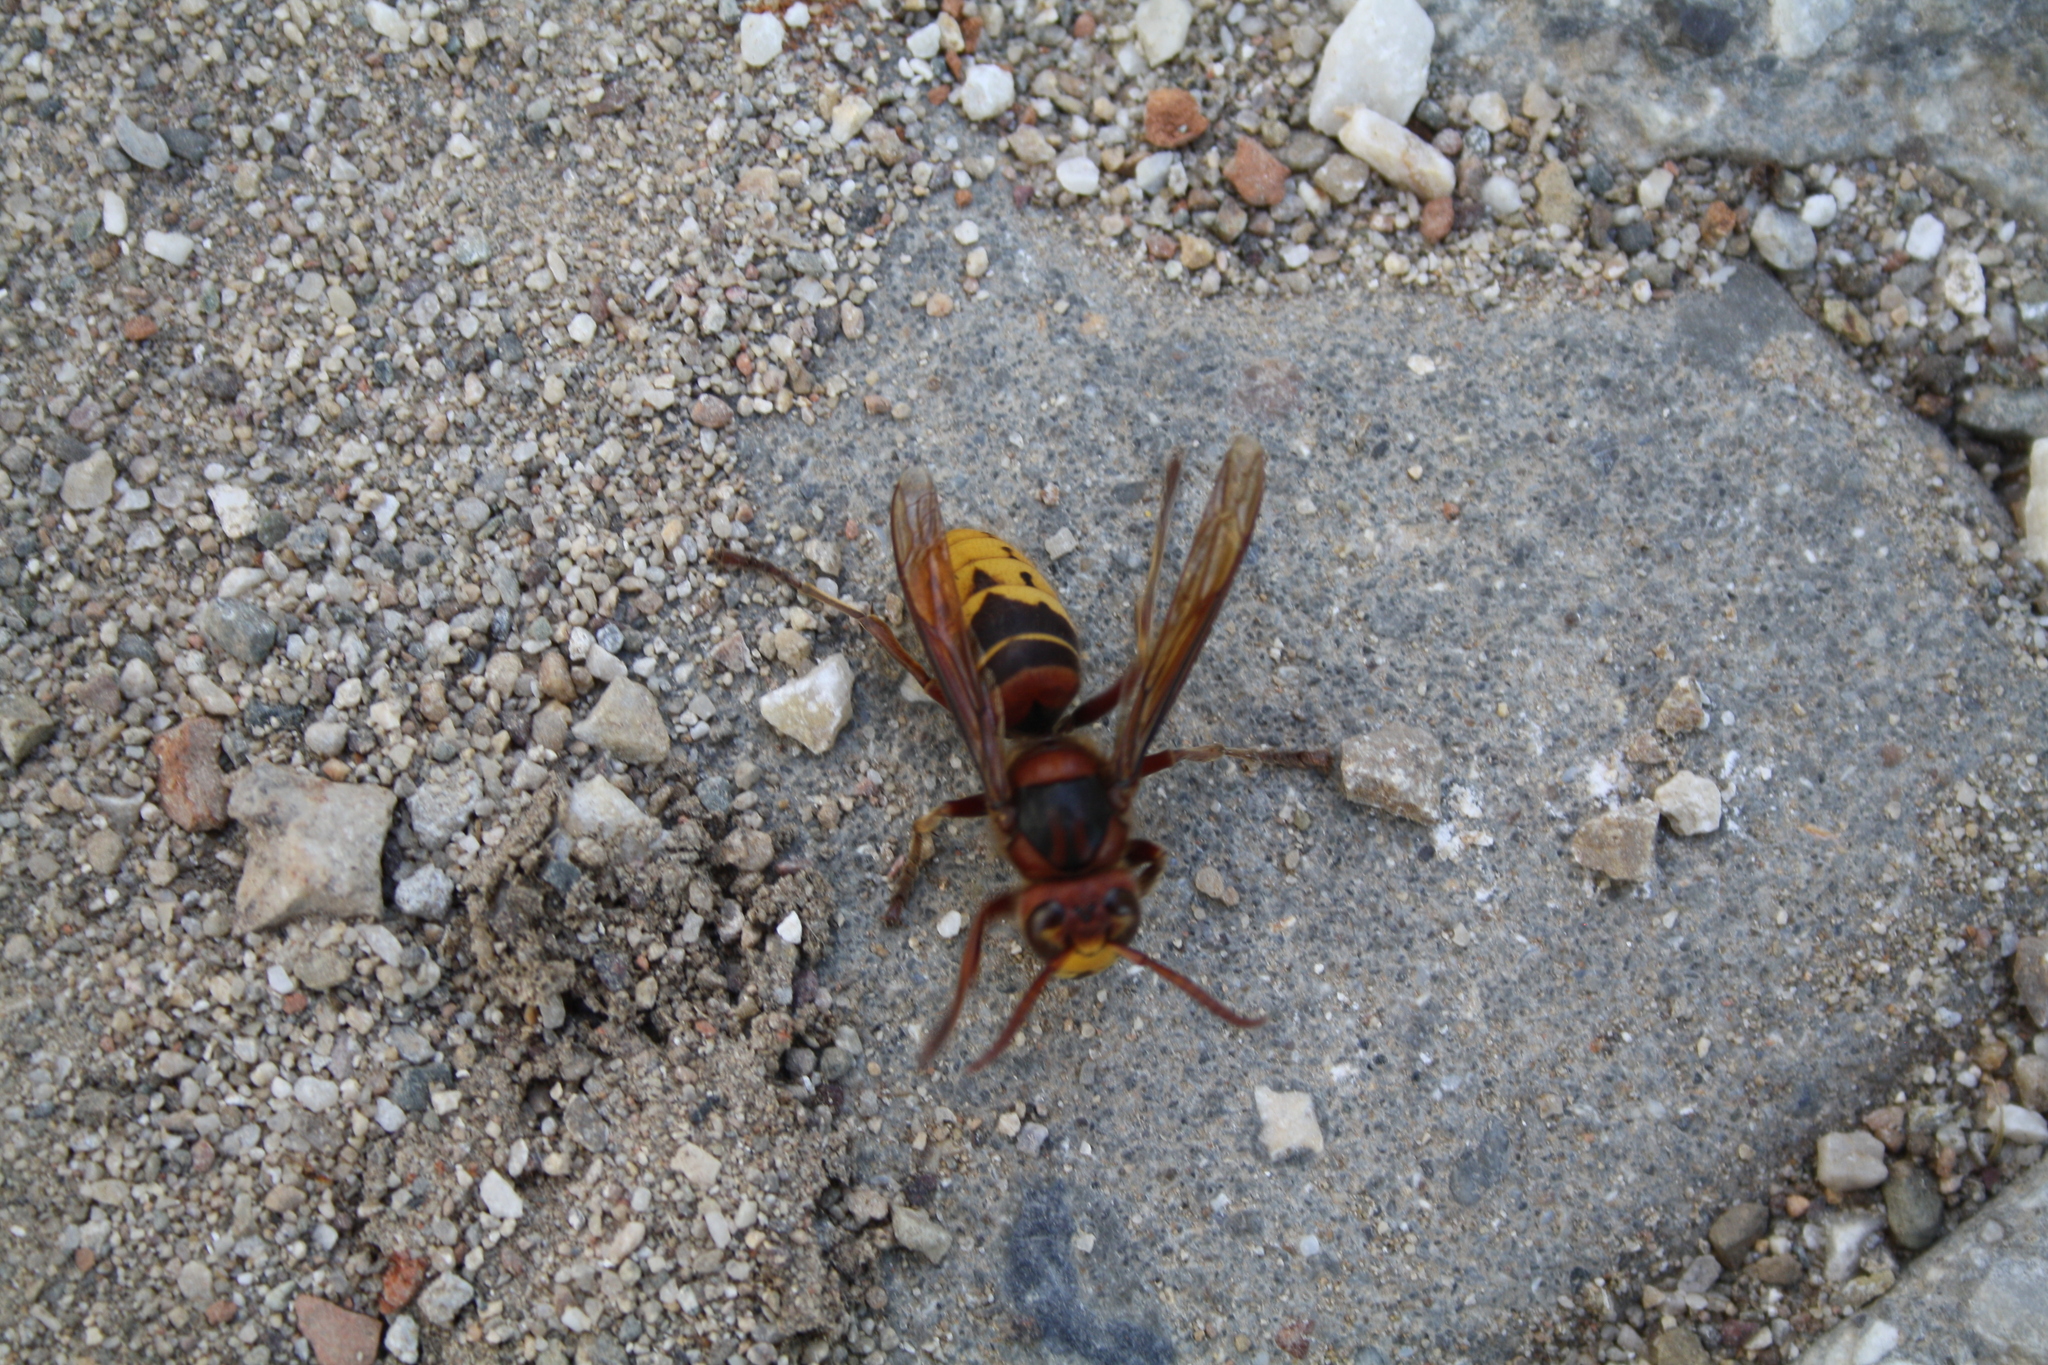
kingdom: Animalia
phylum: Arthropoda
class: Insecta
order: Hymenoptera
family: Vespidae
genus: Vespa
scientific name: Vespa crabro
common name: Hornet
